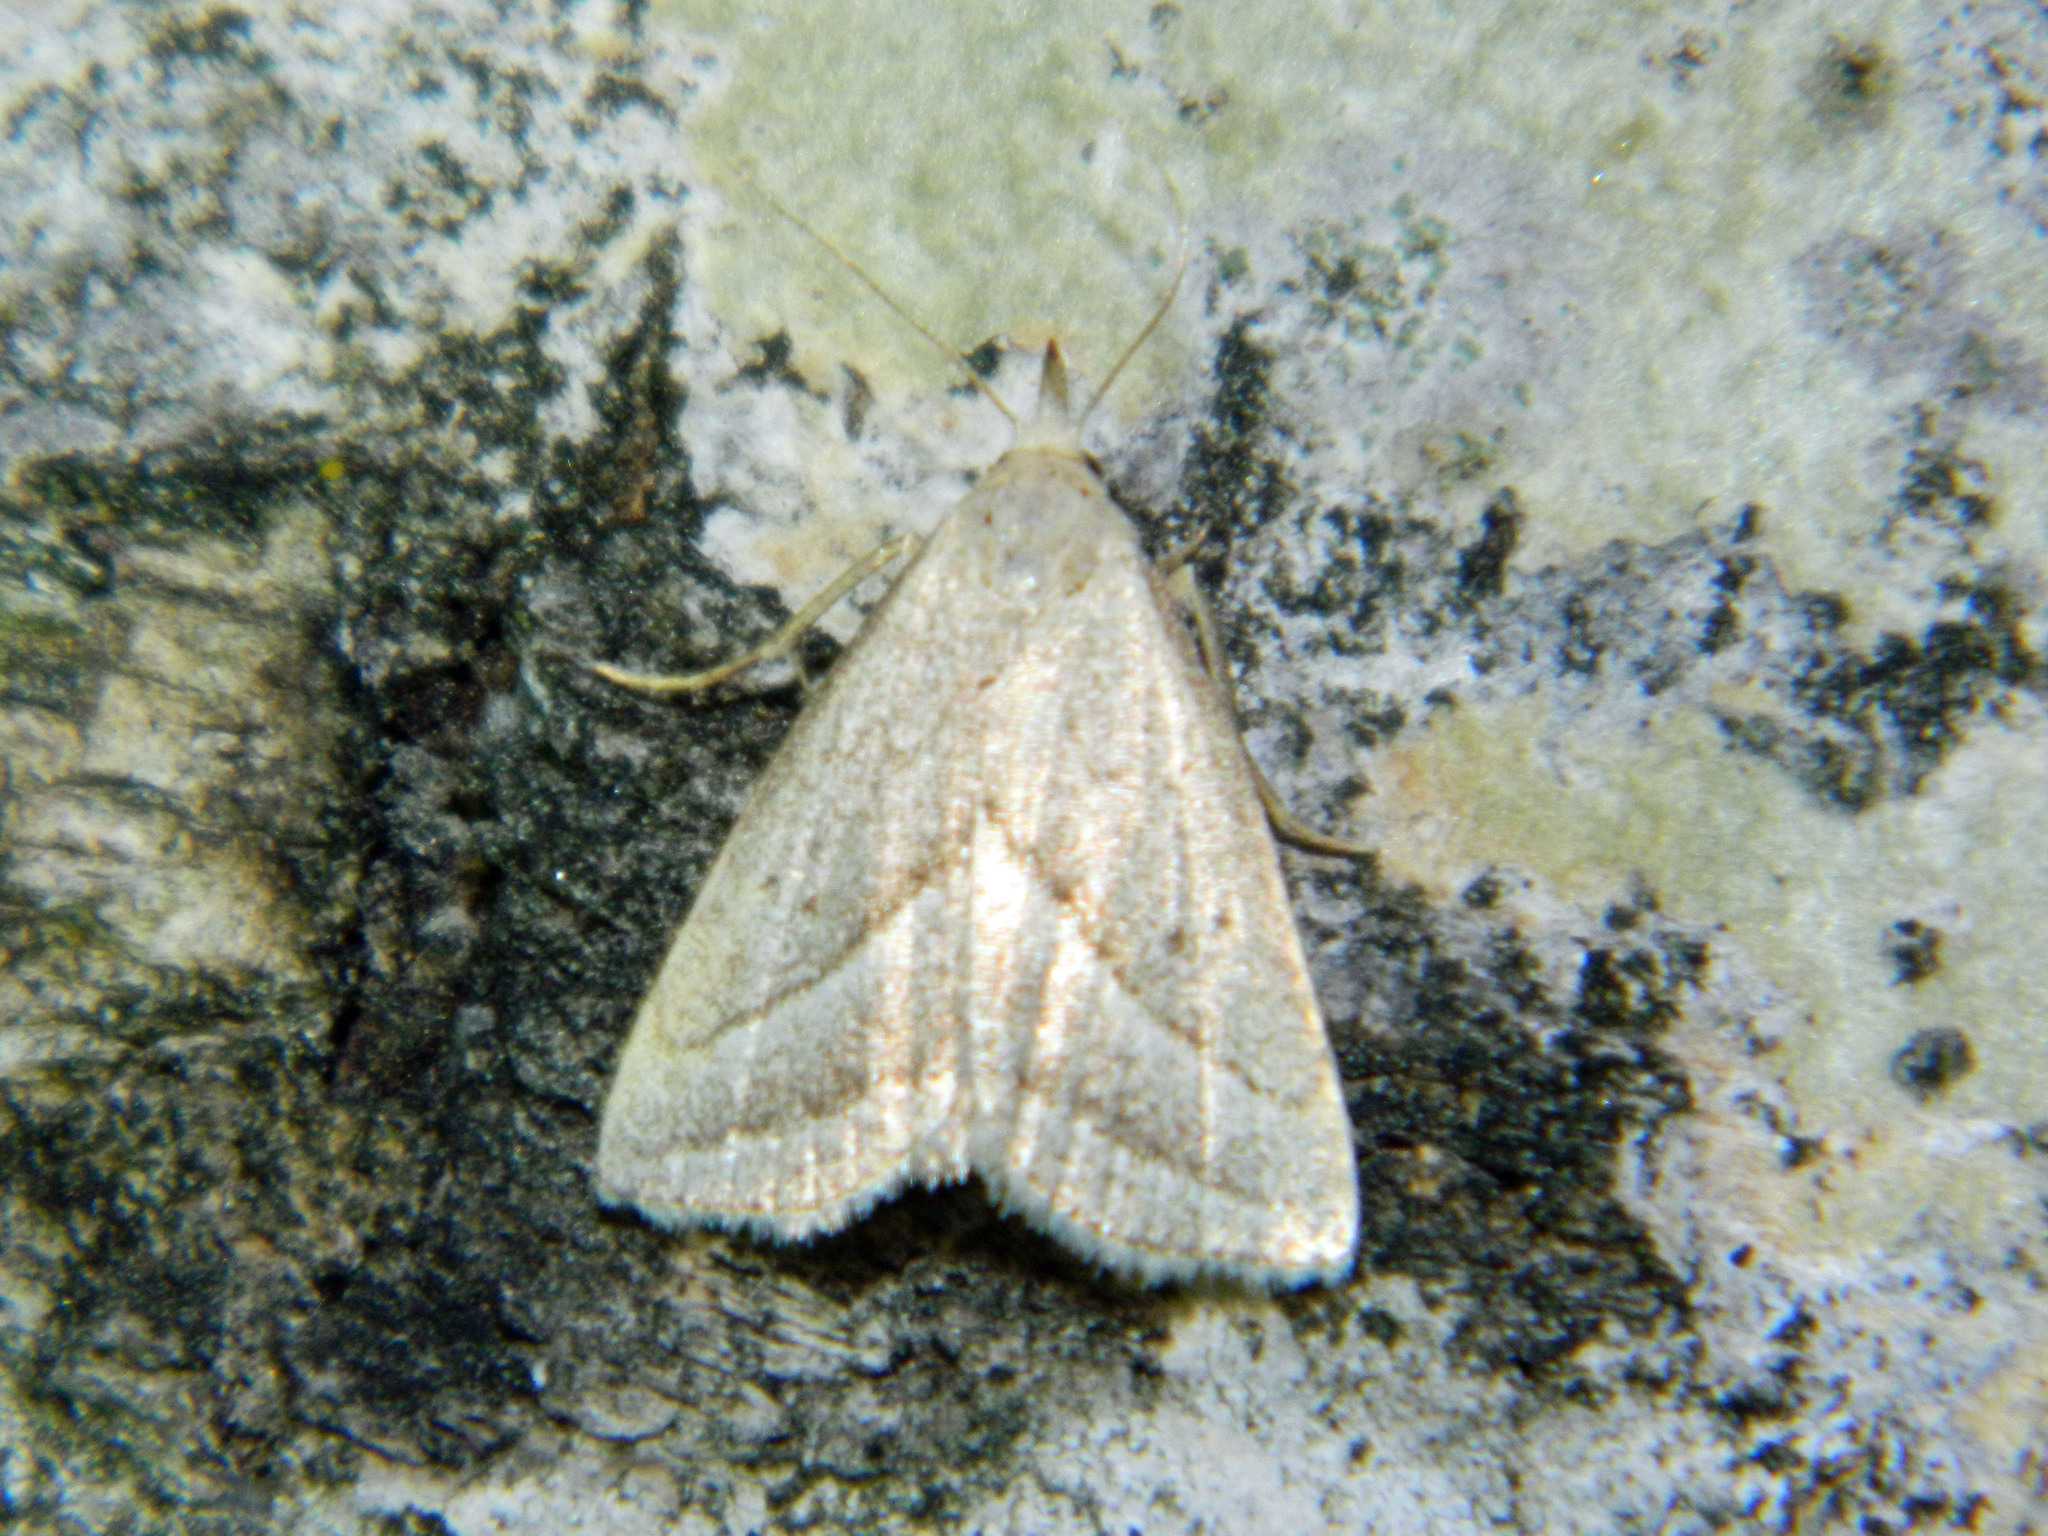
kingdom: Animalia
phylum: Arthropoda
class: Insecta
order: Lepidoptera
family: Erebidae
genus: Macrochilo
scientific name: Macrochilo absorptalis
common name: Slant-lined owlet
